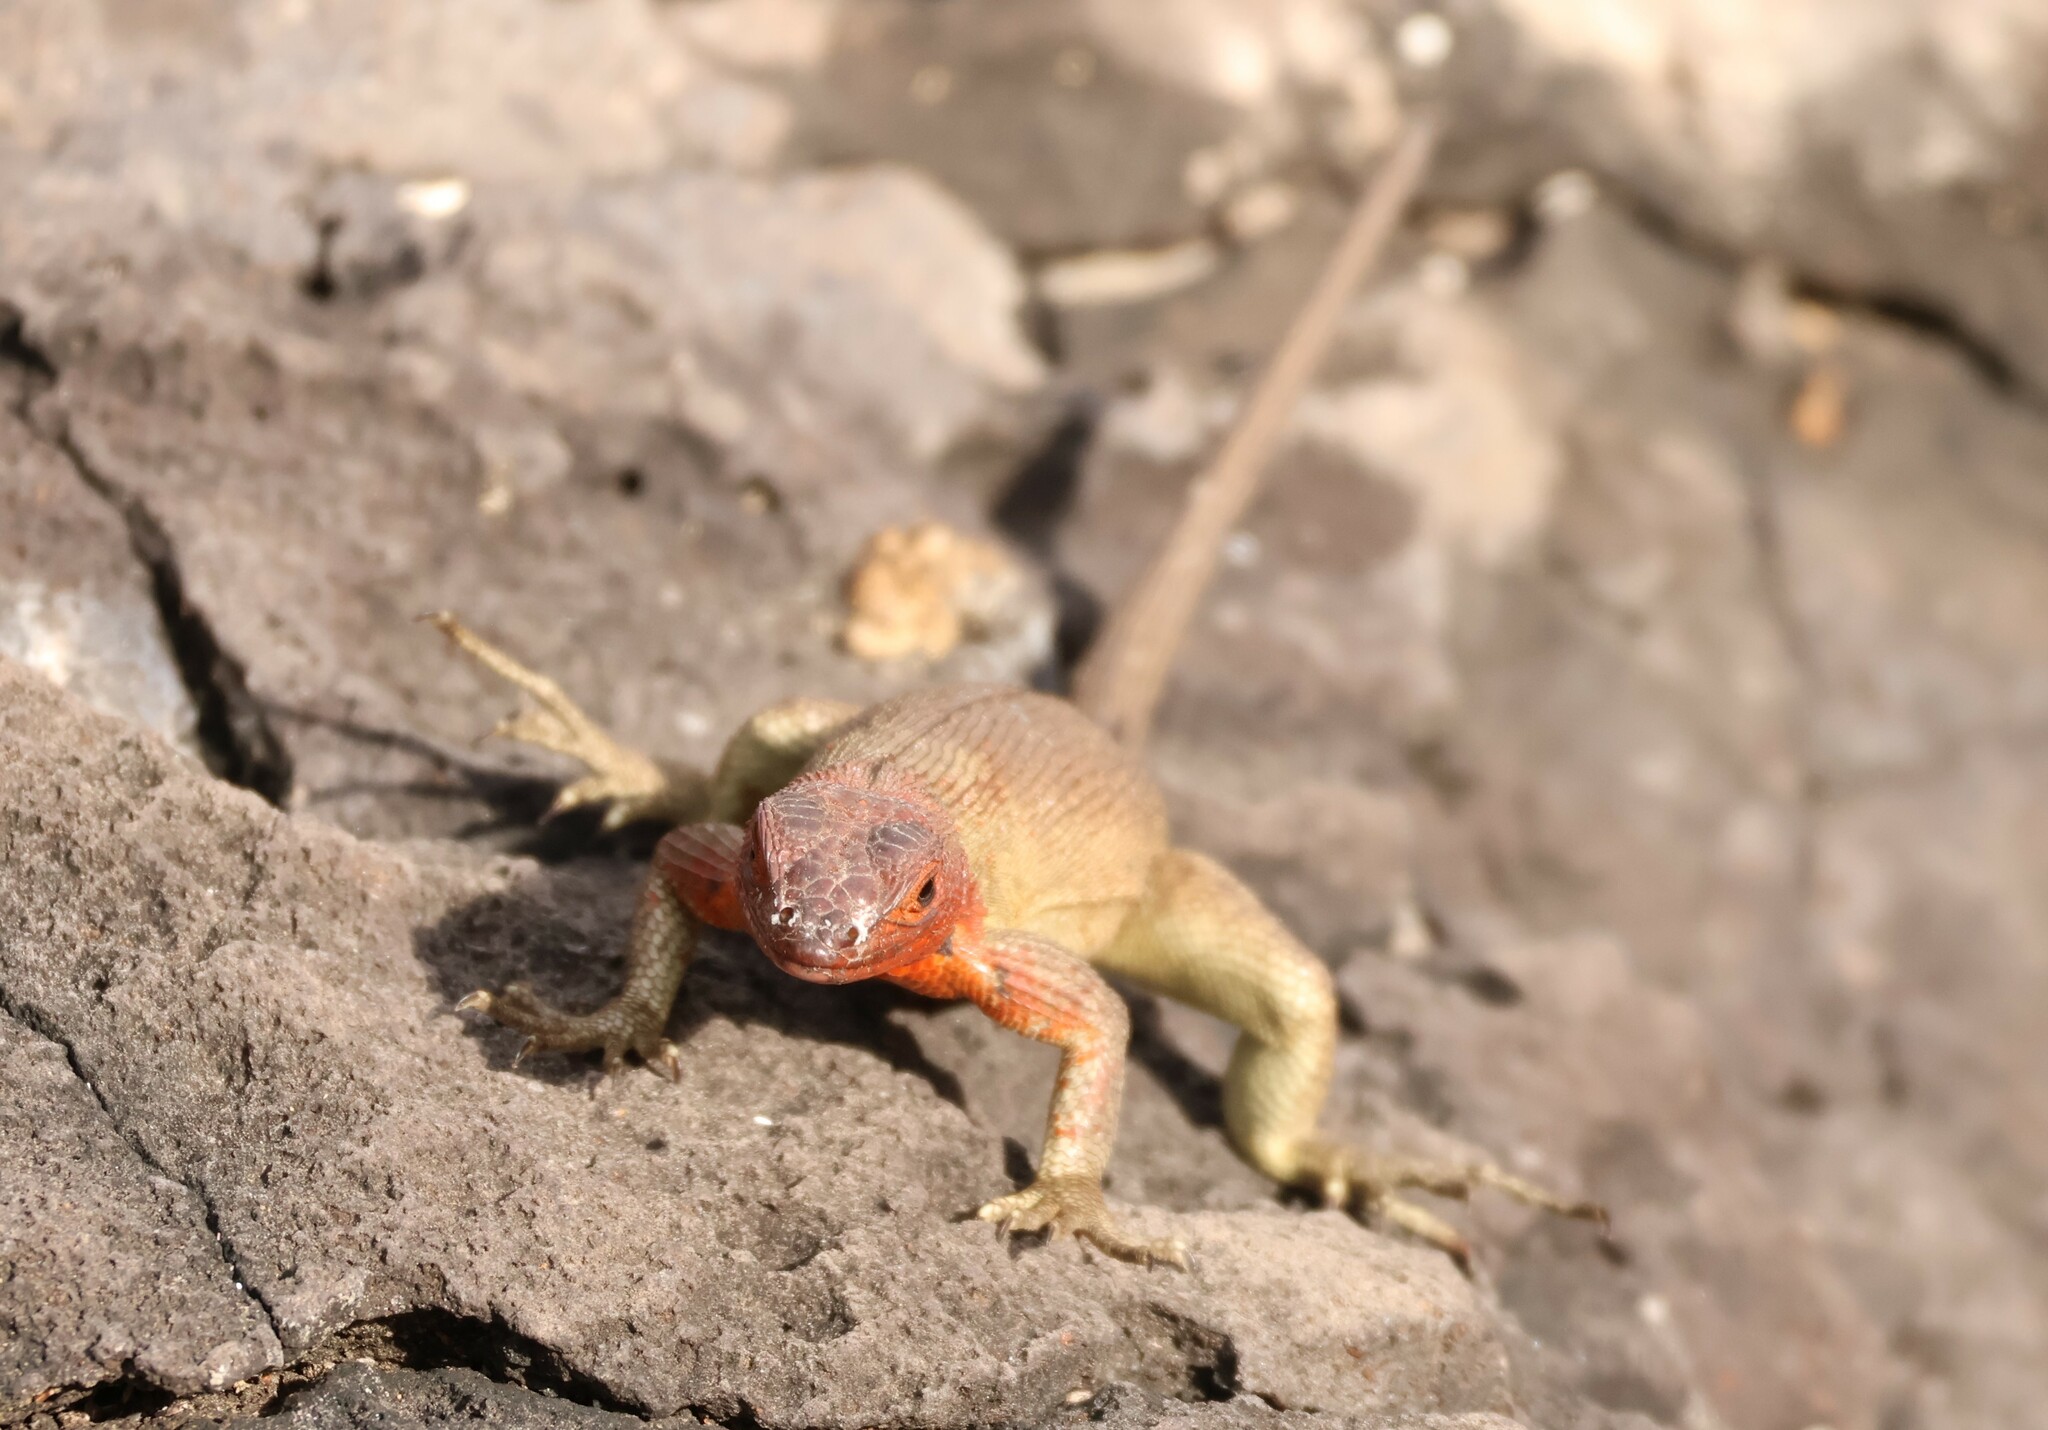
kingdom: Animalia
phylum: Chordata
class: Squamata
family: Tropiduridae
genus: Microlophus
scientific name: Microlophus delanonis
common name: Hood lava lizard
